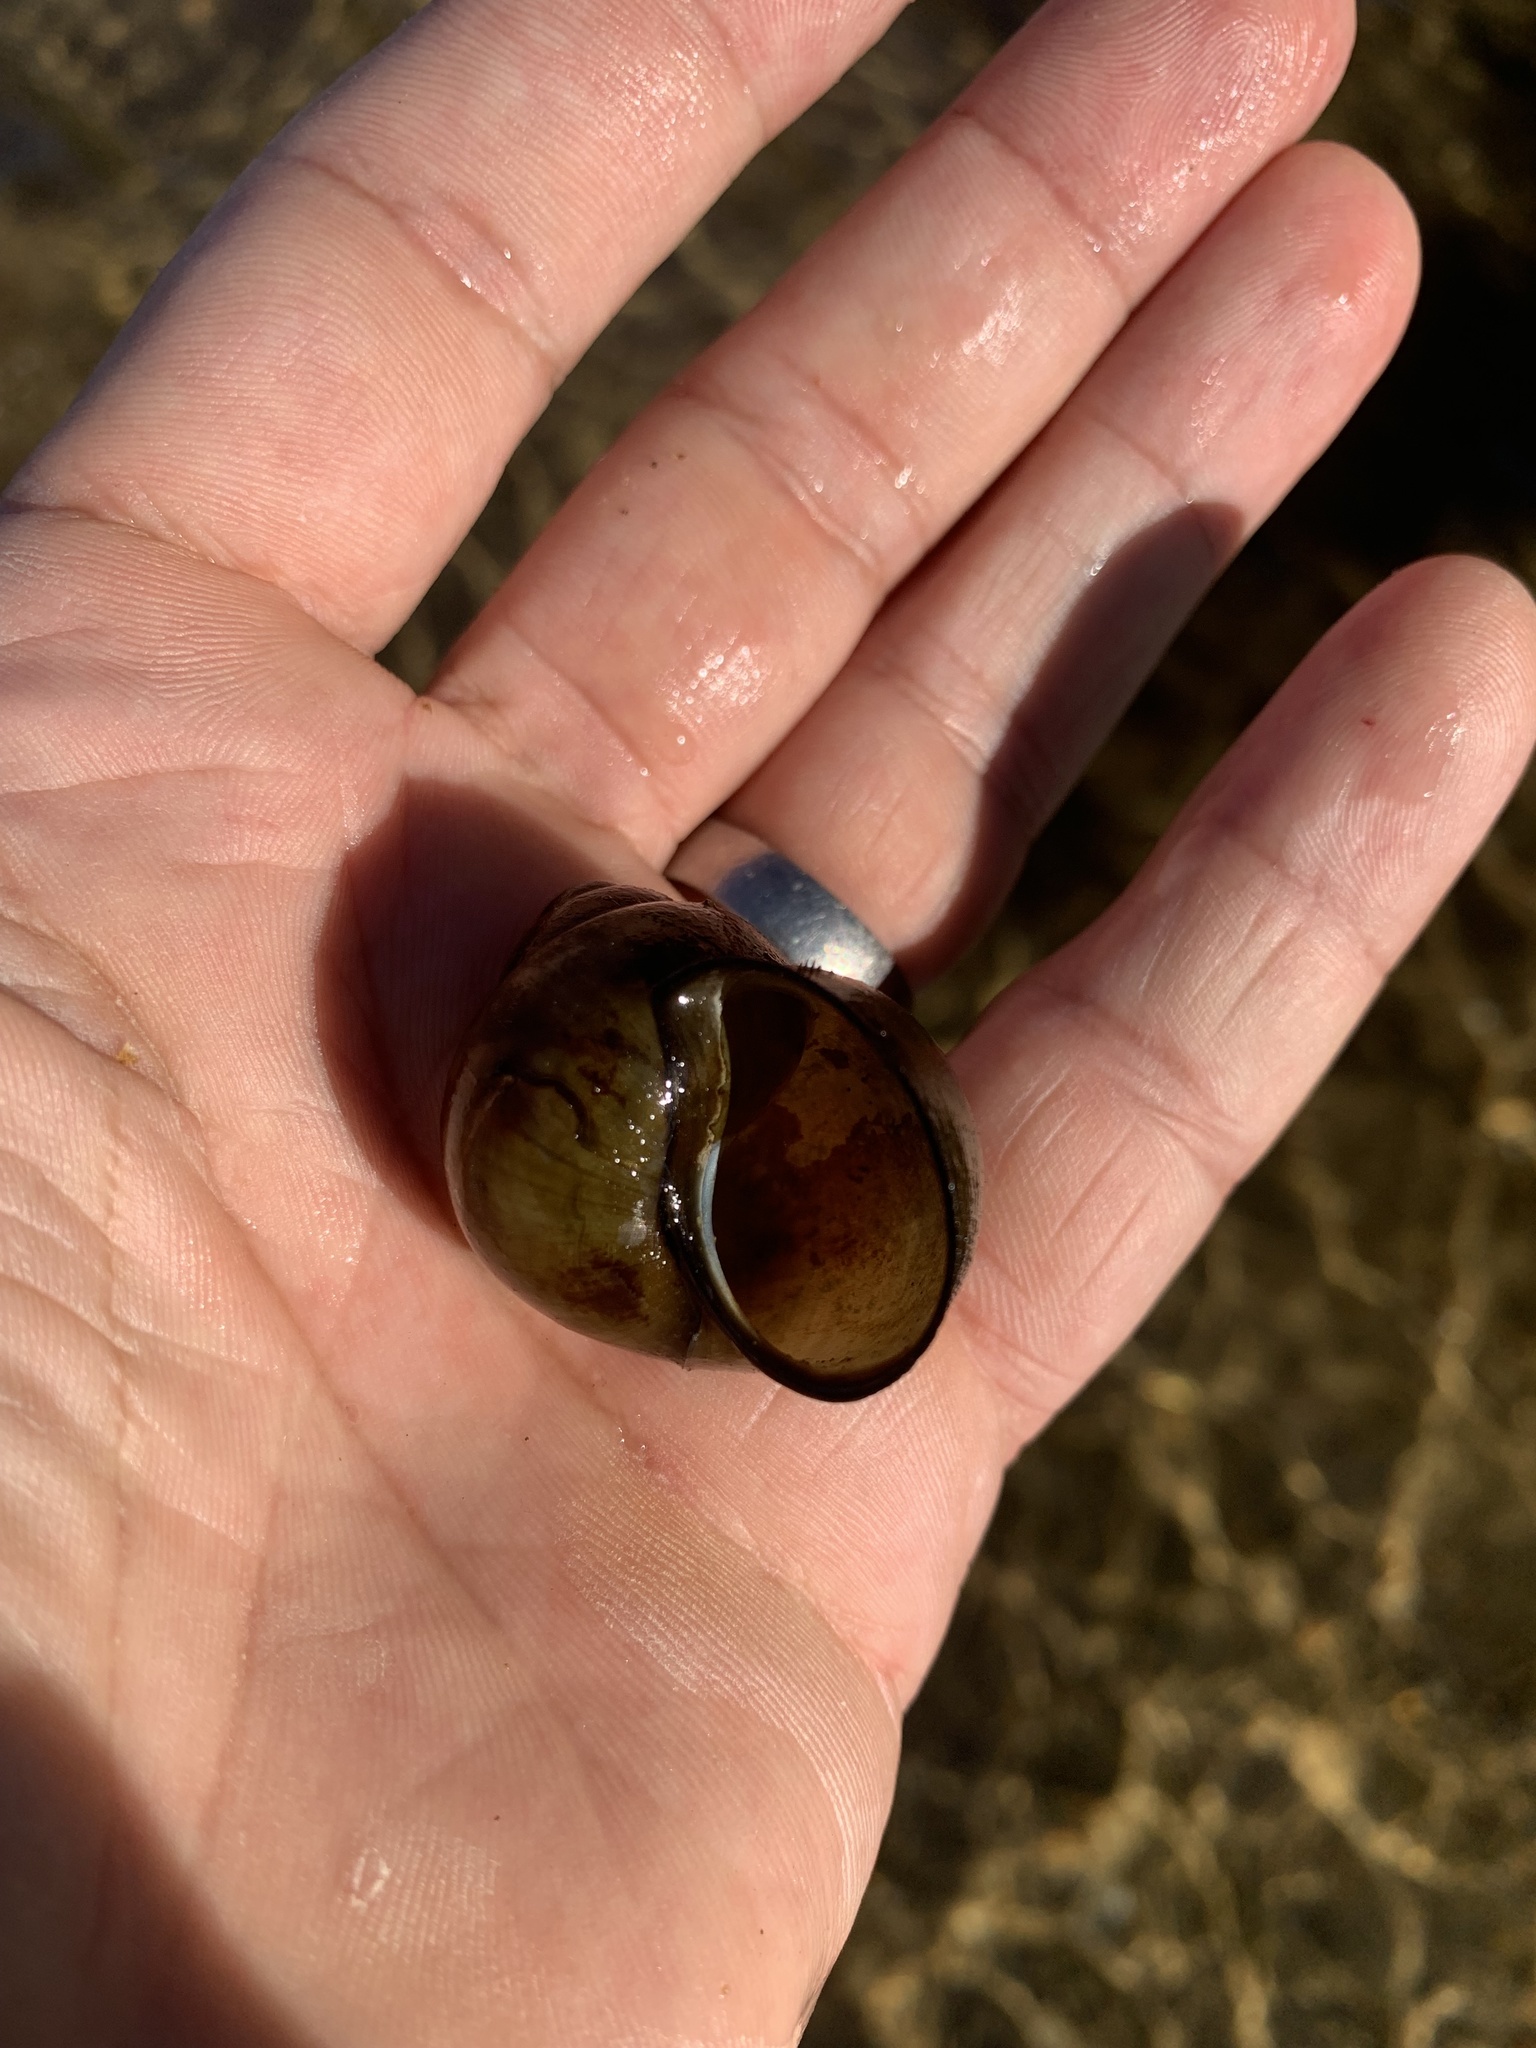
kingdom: Animalia
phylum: Mollusca
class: Gastropoda
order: Architaenioglossa
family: Viviparidae
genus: Cipangopaludina
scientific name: Cipangopaludina chinensis
